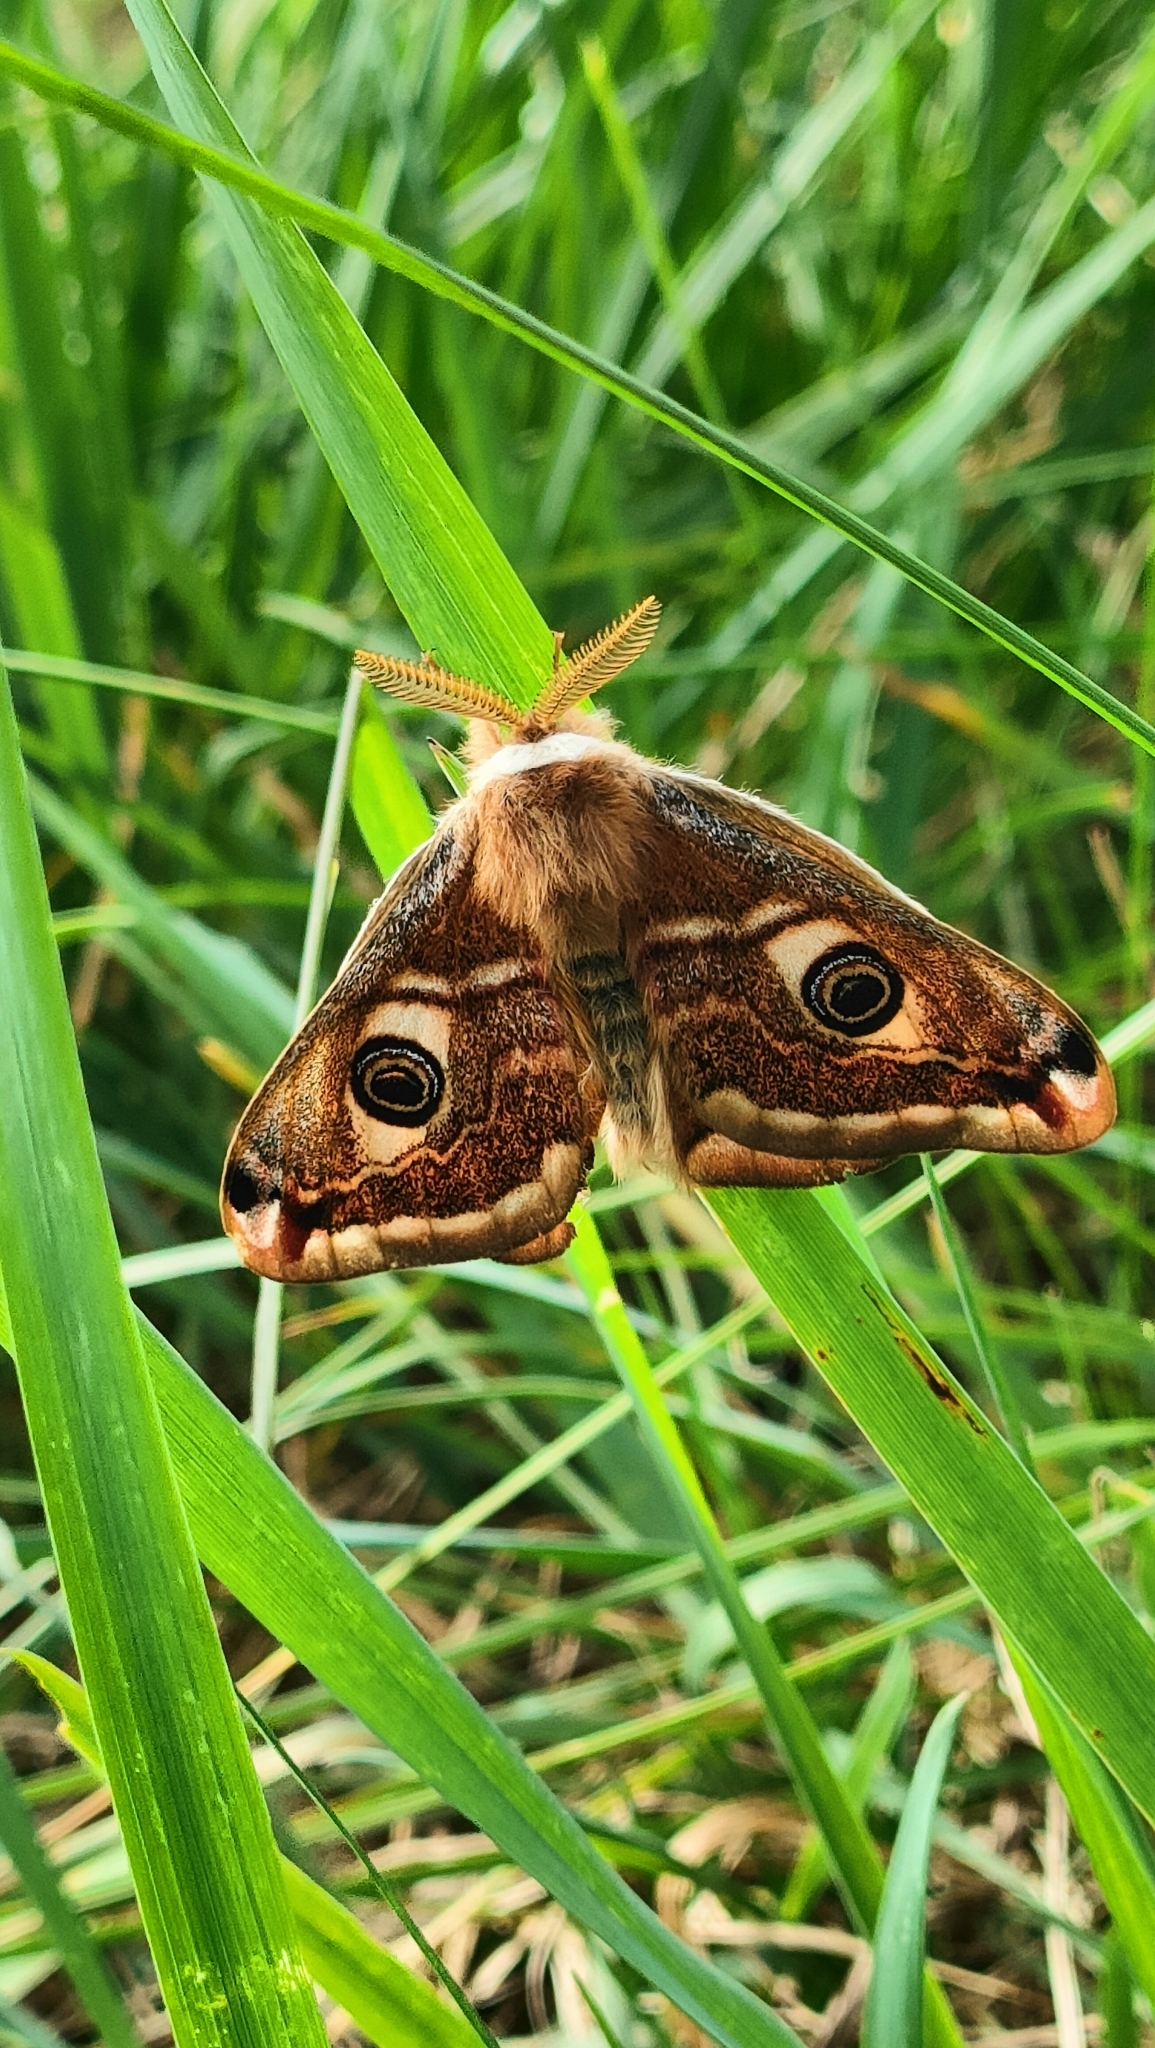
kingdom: Animalia
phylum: Arthropoda
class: Insecta
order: Lepidoptera
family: Saturniidae
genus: Saturnia
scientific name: Saturnia pavoniella
